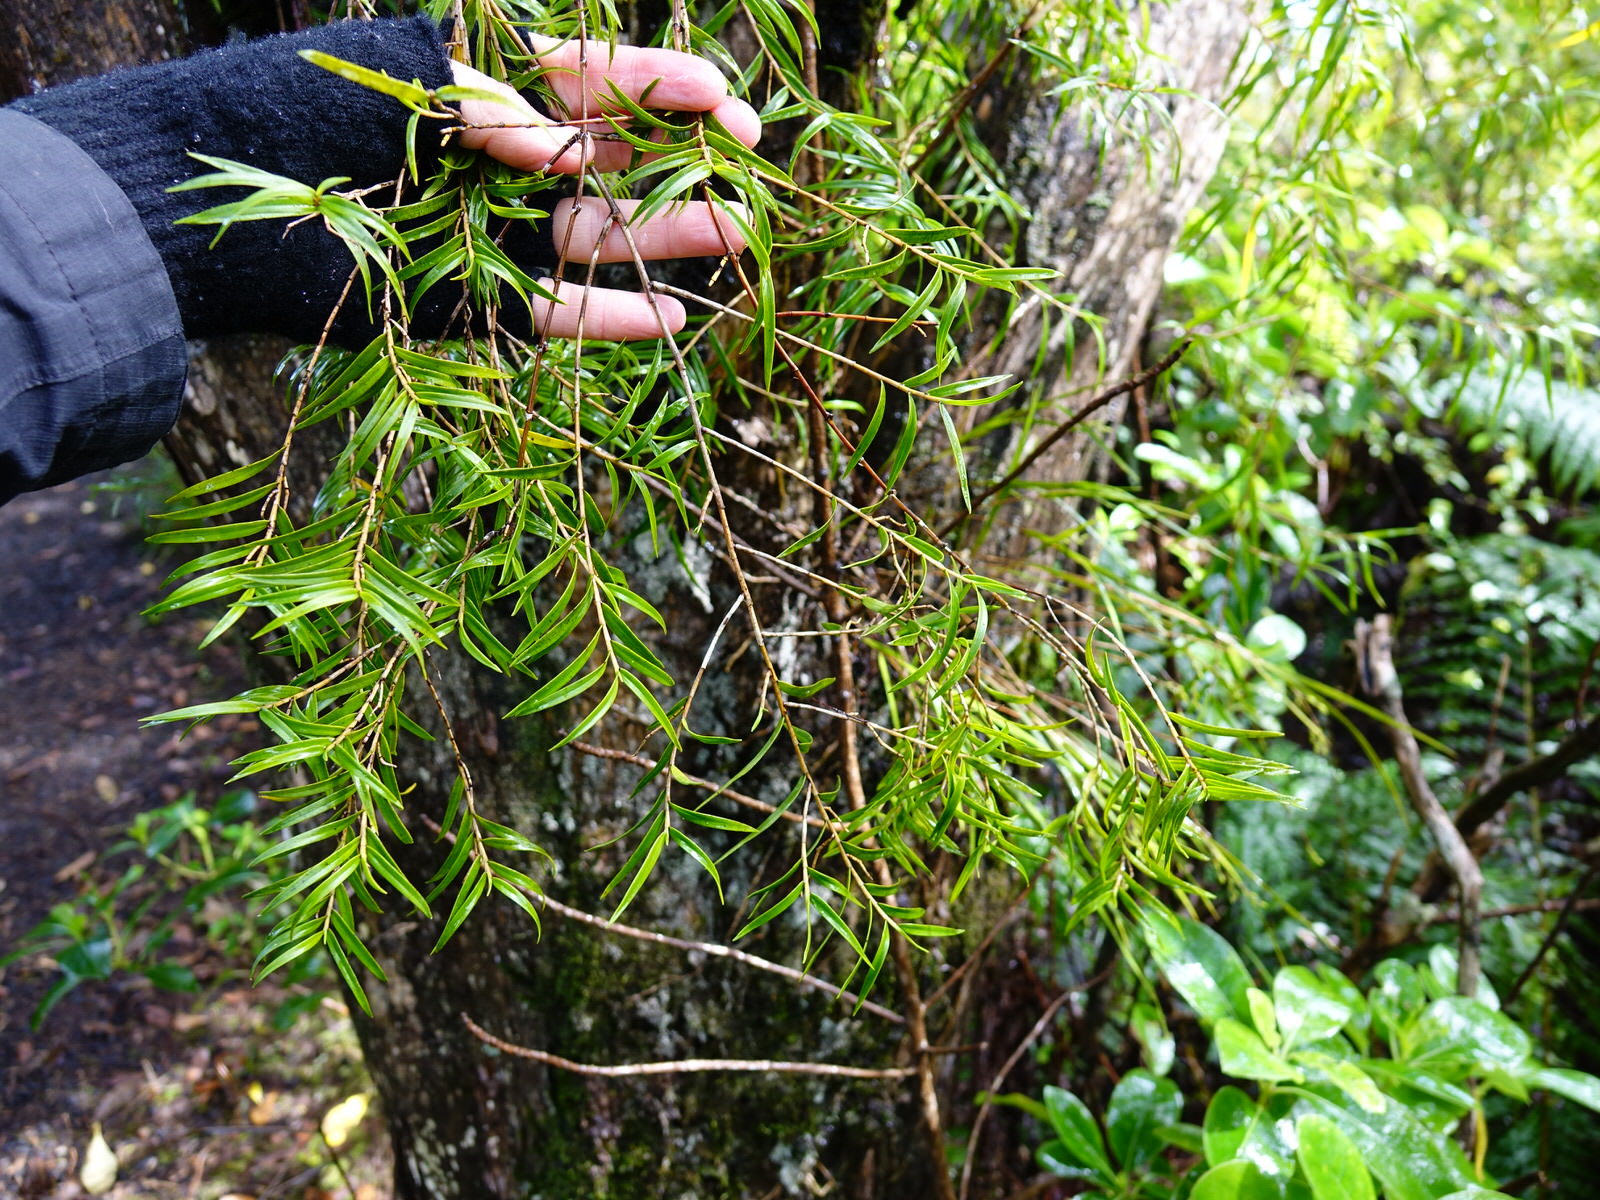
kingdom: Plantae
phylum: Tracheophyta
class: Liliopsida
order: Asparagales
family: Orchidaceae
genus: Dendrobium
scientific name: Dendrobium cunninghamii
